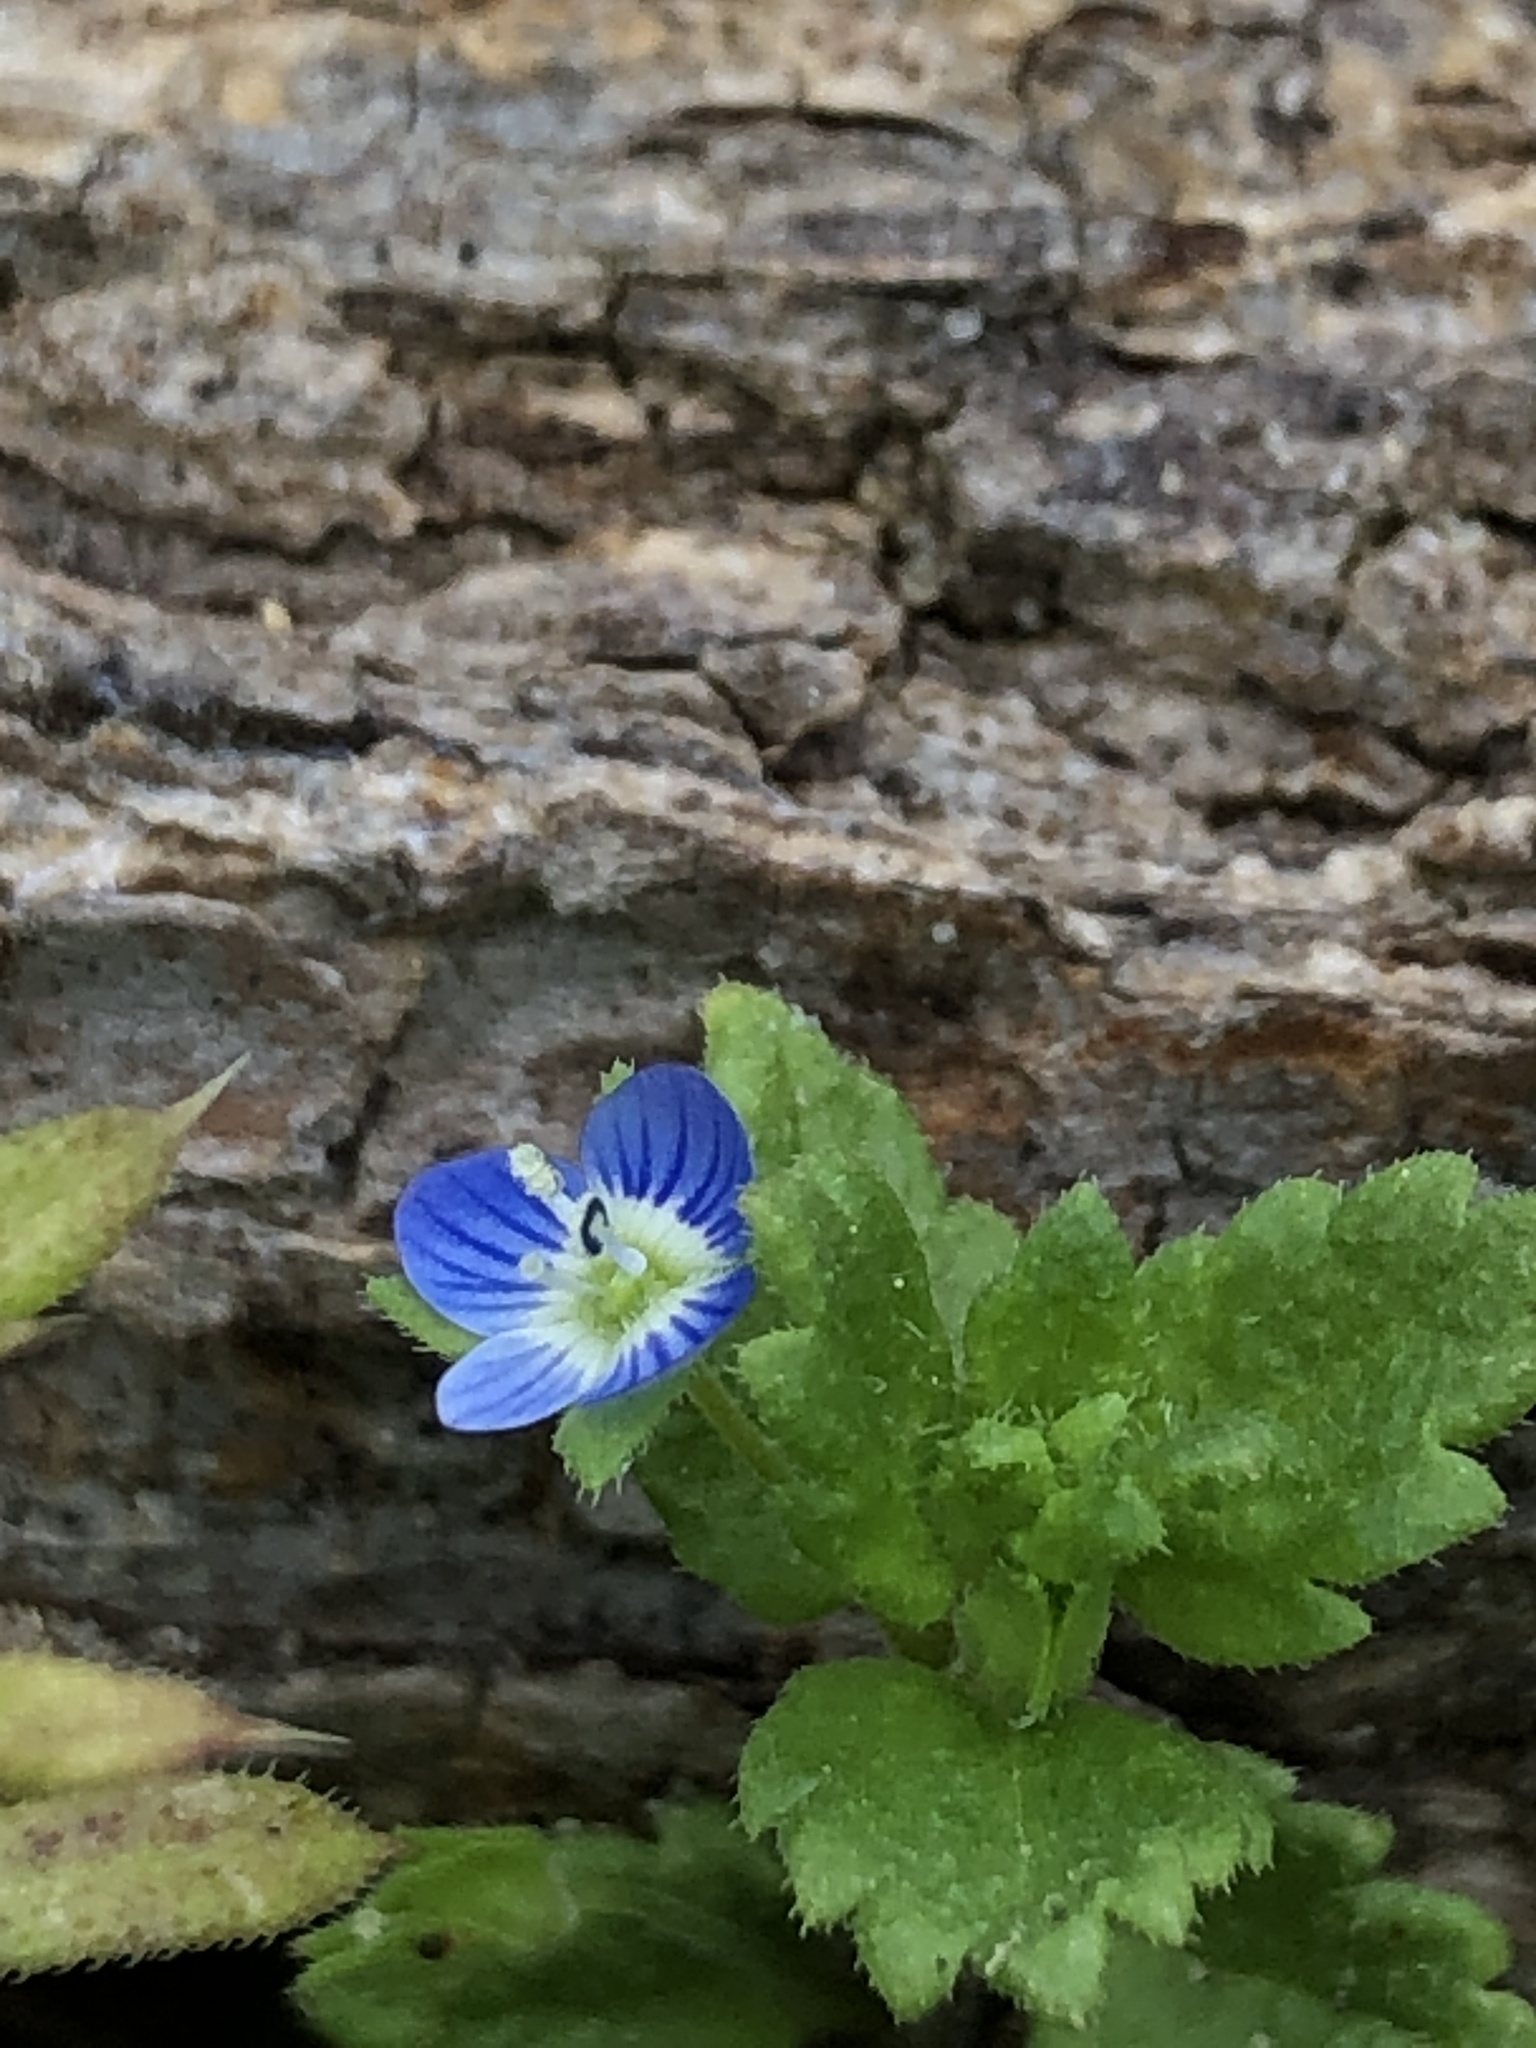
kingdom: Plantae
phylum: Tracheophyta
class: Magnoliopsida
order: Lamiales
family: Plantaginaceae
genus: Veronica
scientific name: Veronica persica
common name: Common field-speedwell
